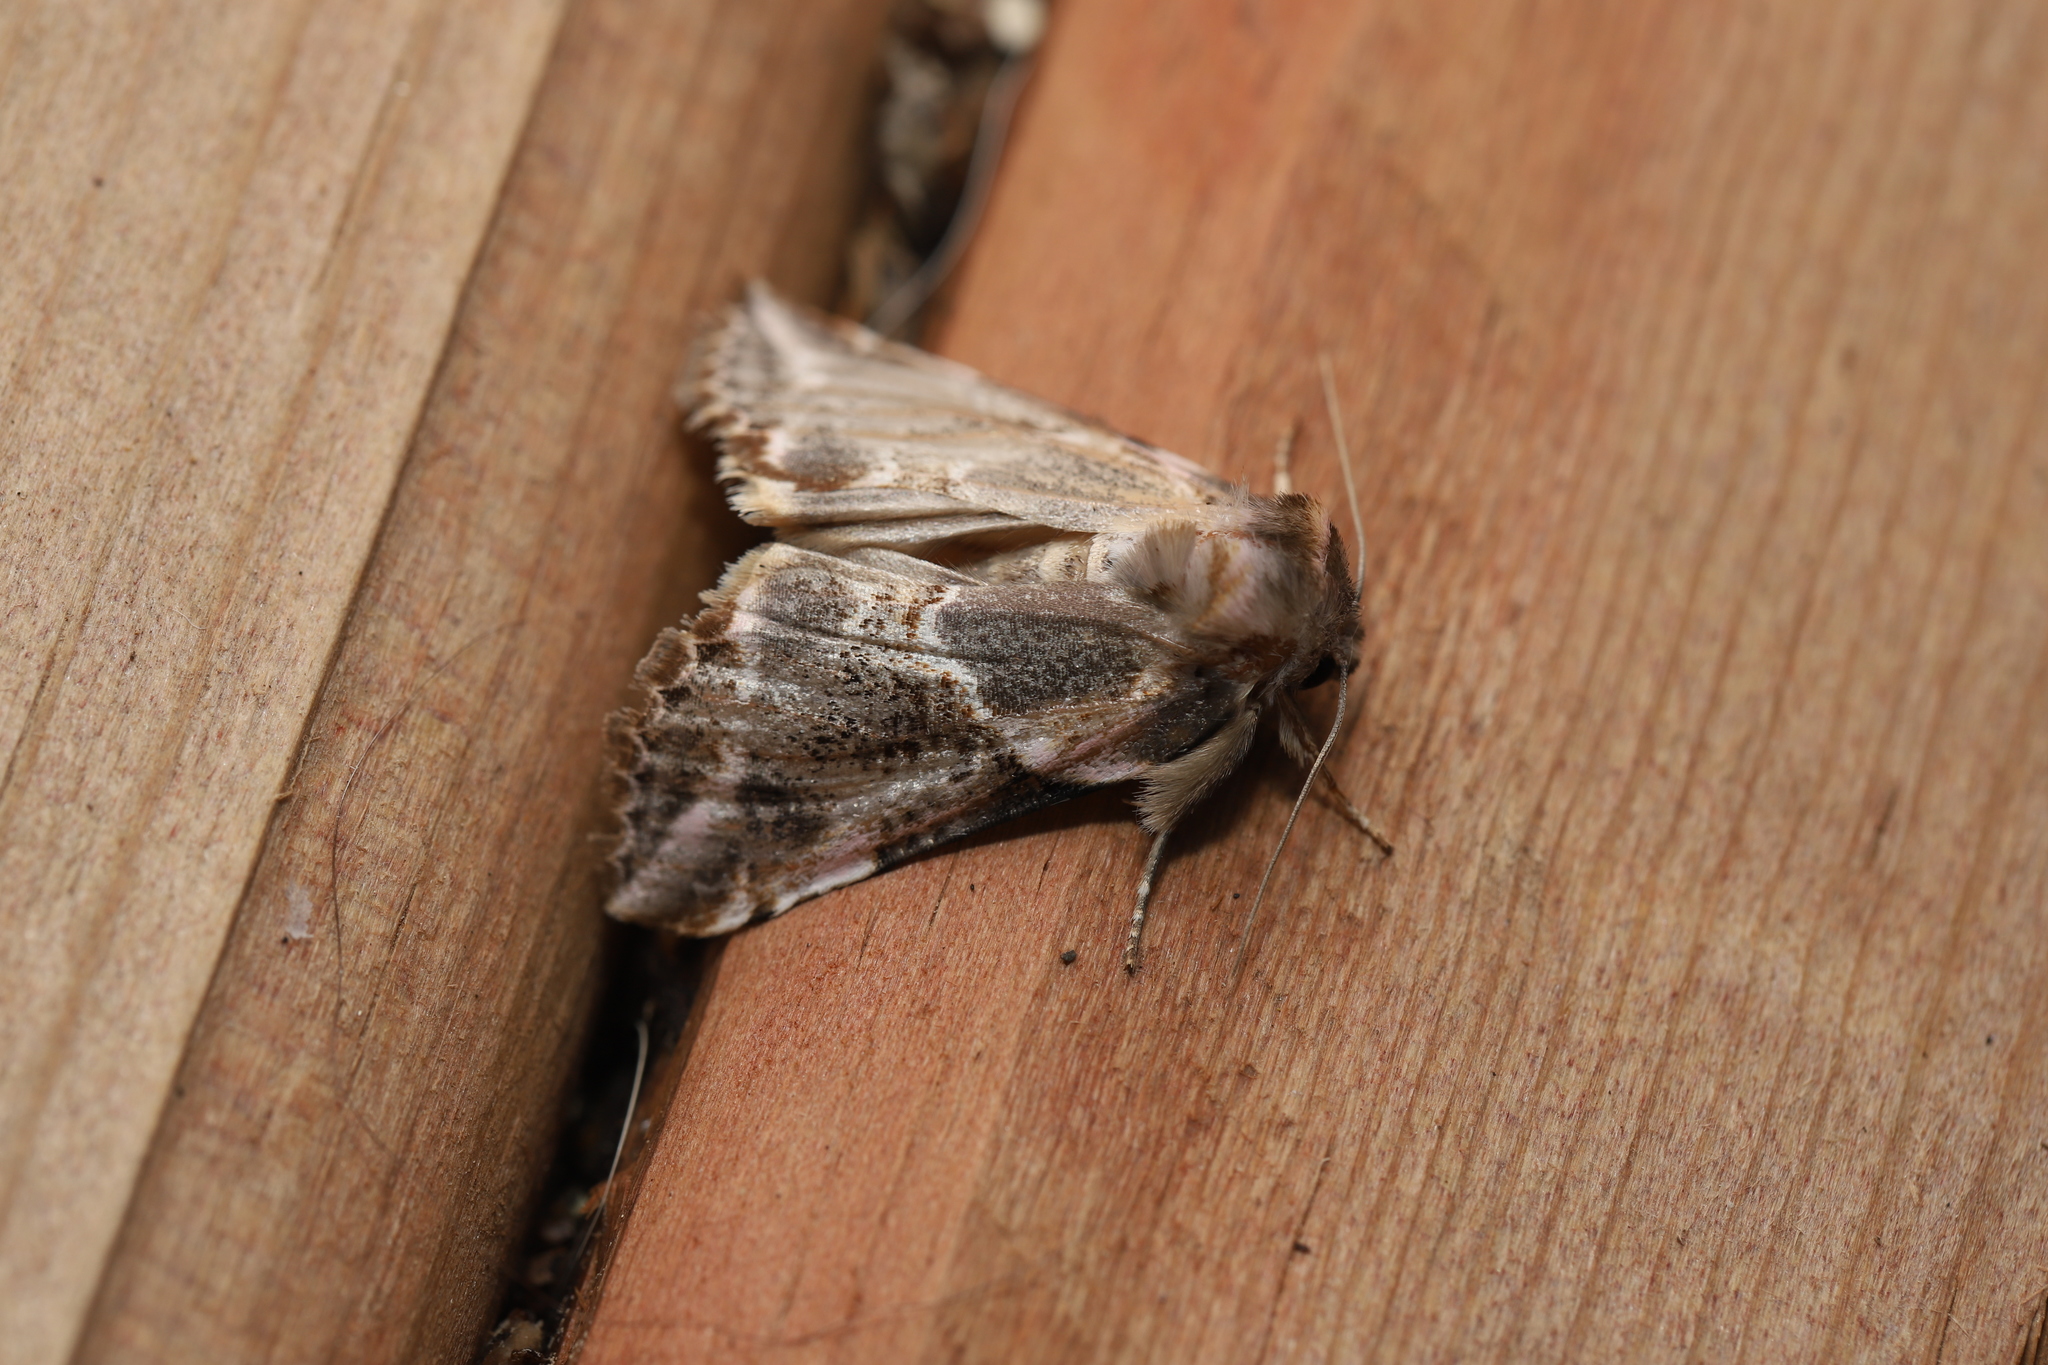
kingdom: Animalia
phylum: Arthropoda
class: Insecta
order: Lepidoptera
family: Drepanidae
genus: Habrosyne
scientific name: Habrosyne scripta
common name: Lettered habrosyne moth
